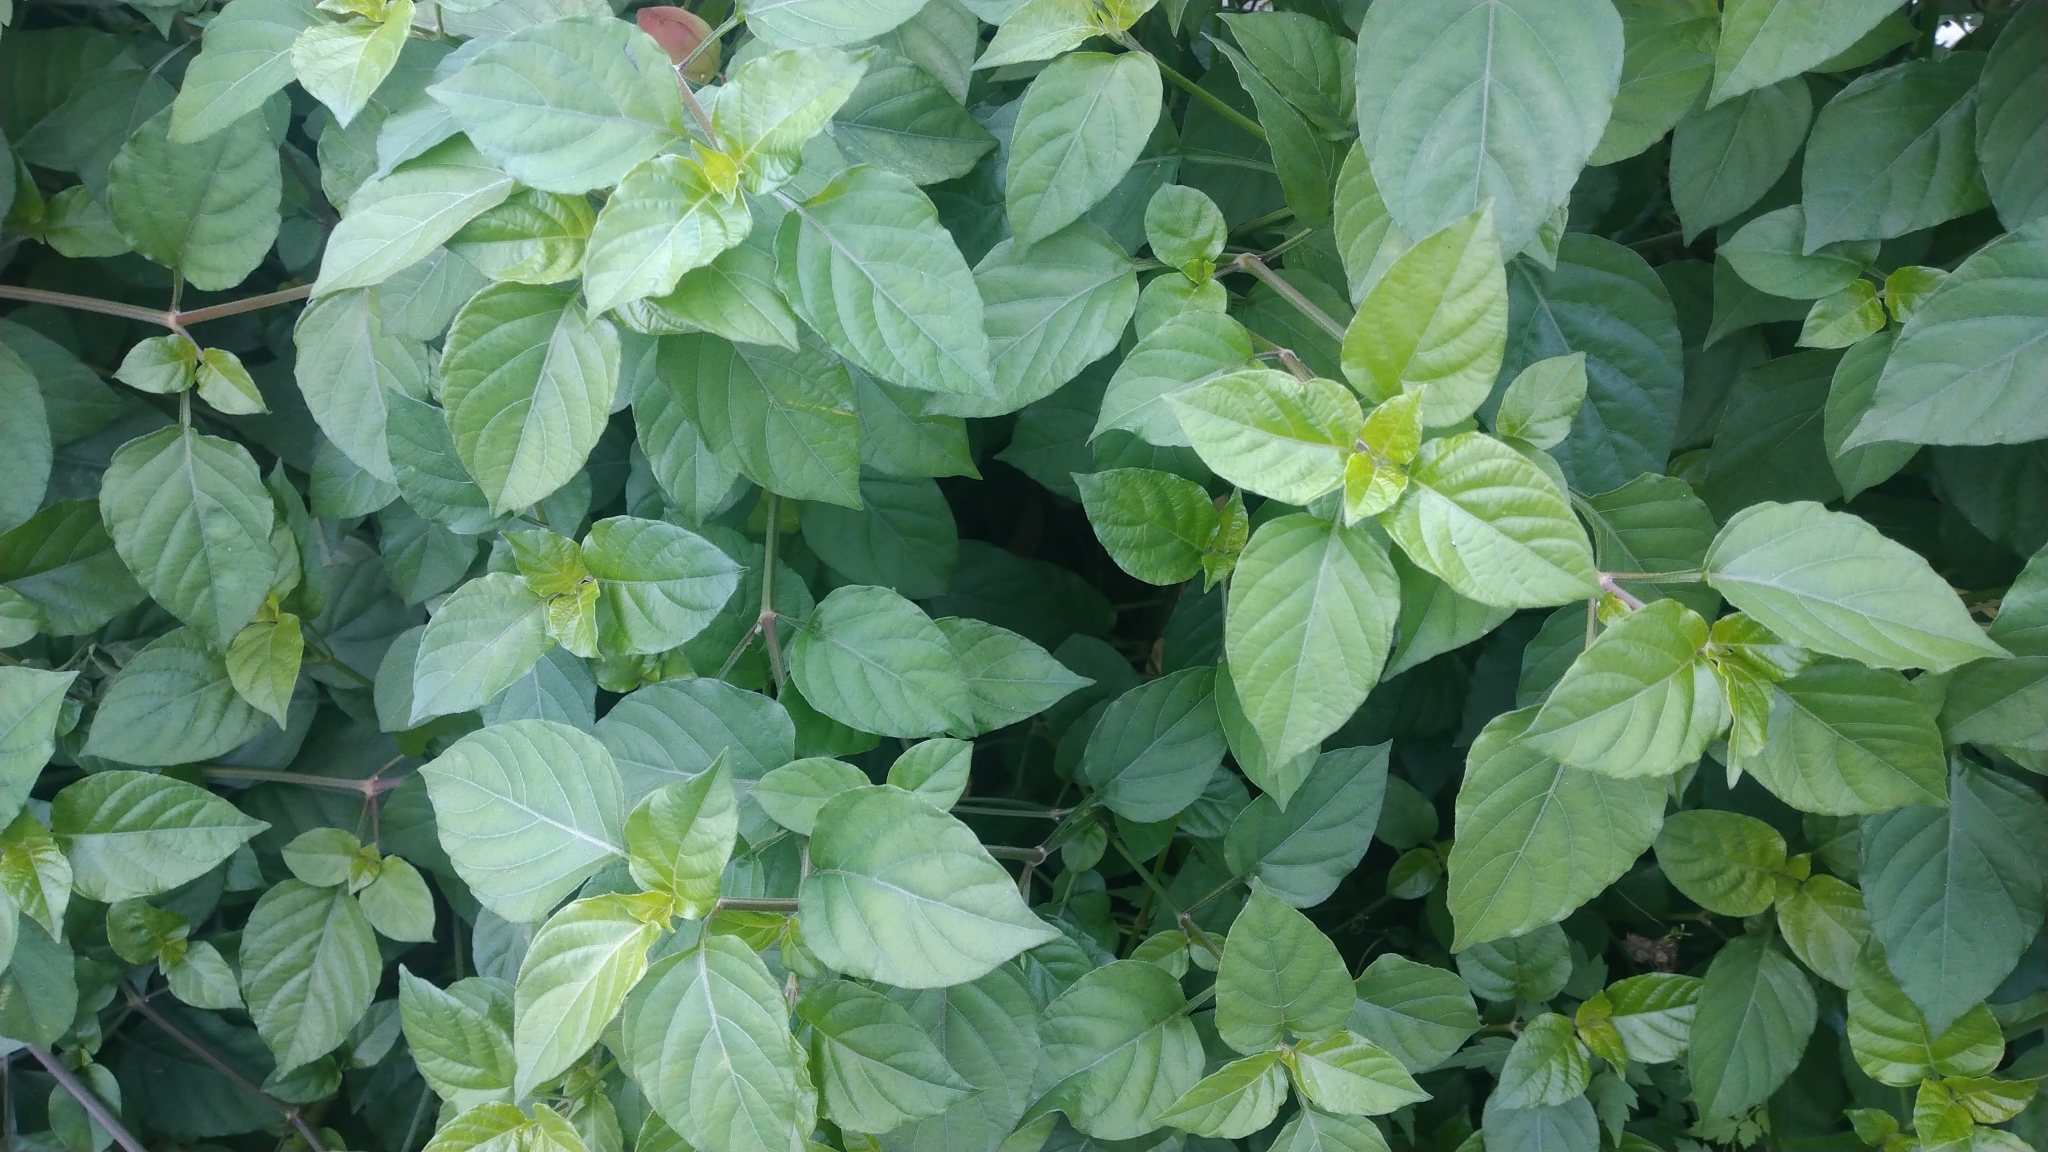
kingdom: Plantae
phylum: Tracheophyta
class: Magnoliopsida
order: Lamiales
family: Acanthaceae
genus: Asystasia
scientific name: Asystasia gangetica
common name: Chinese violet
